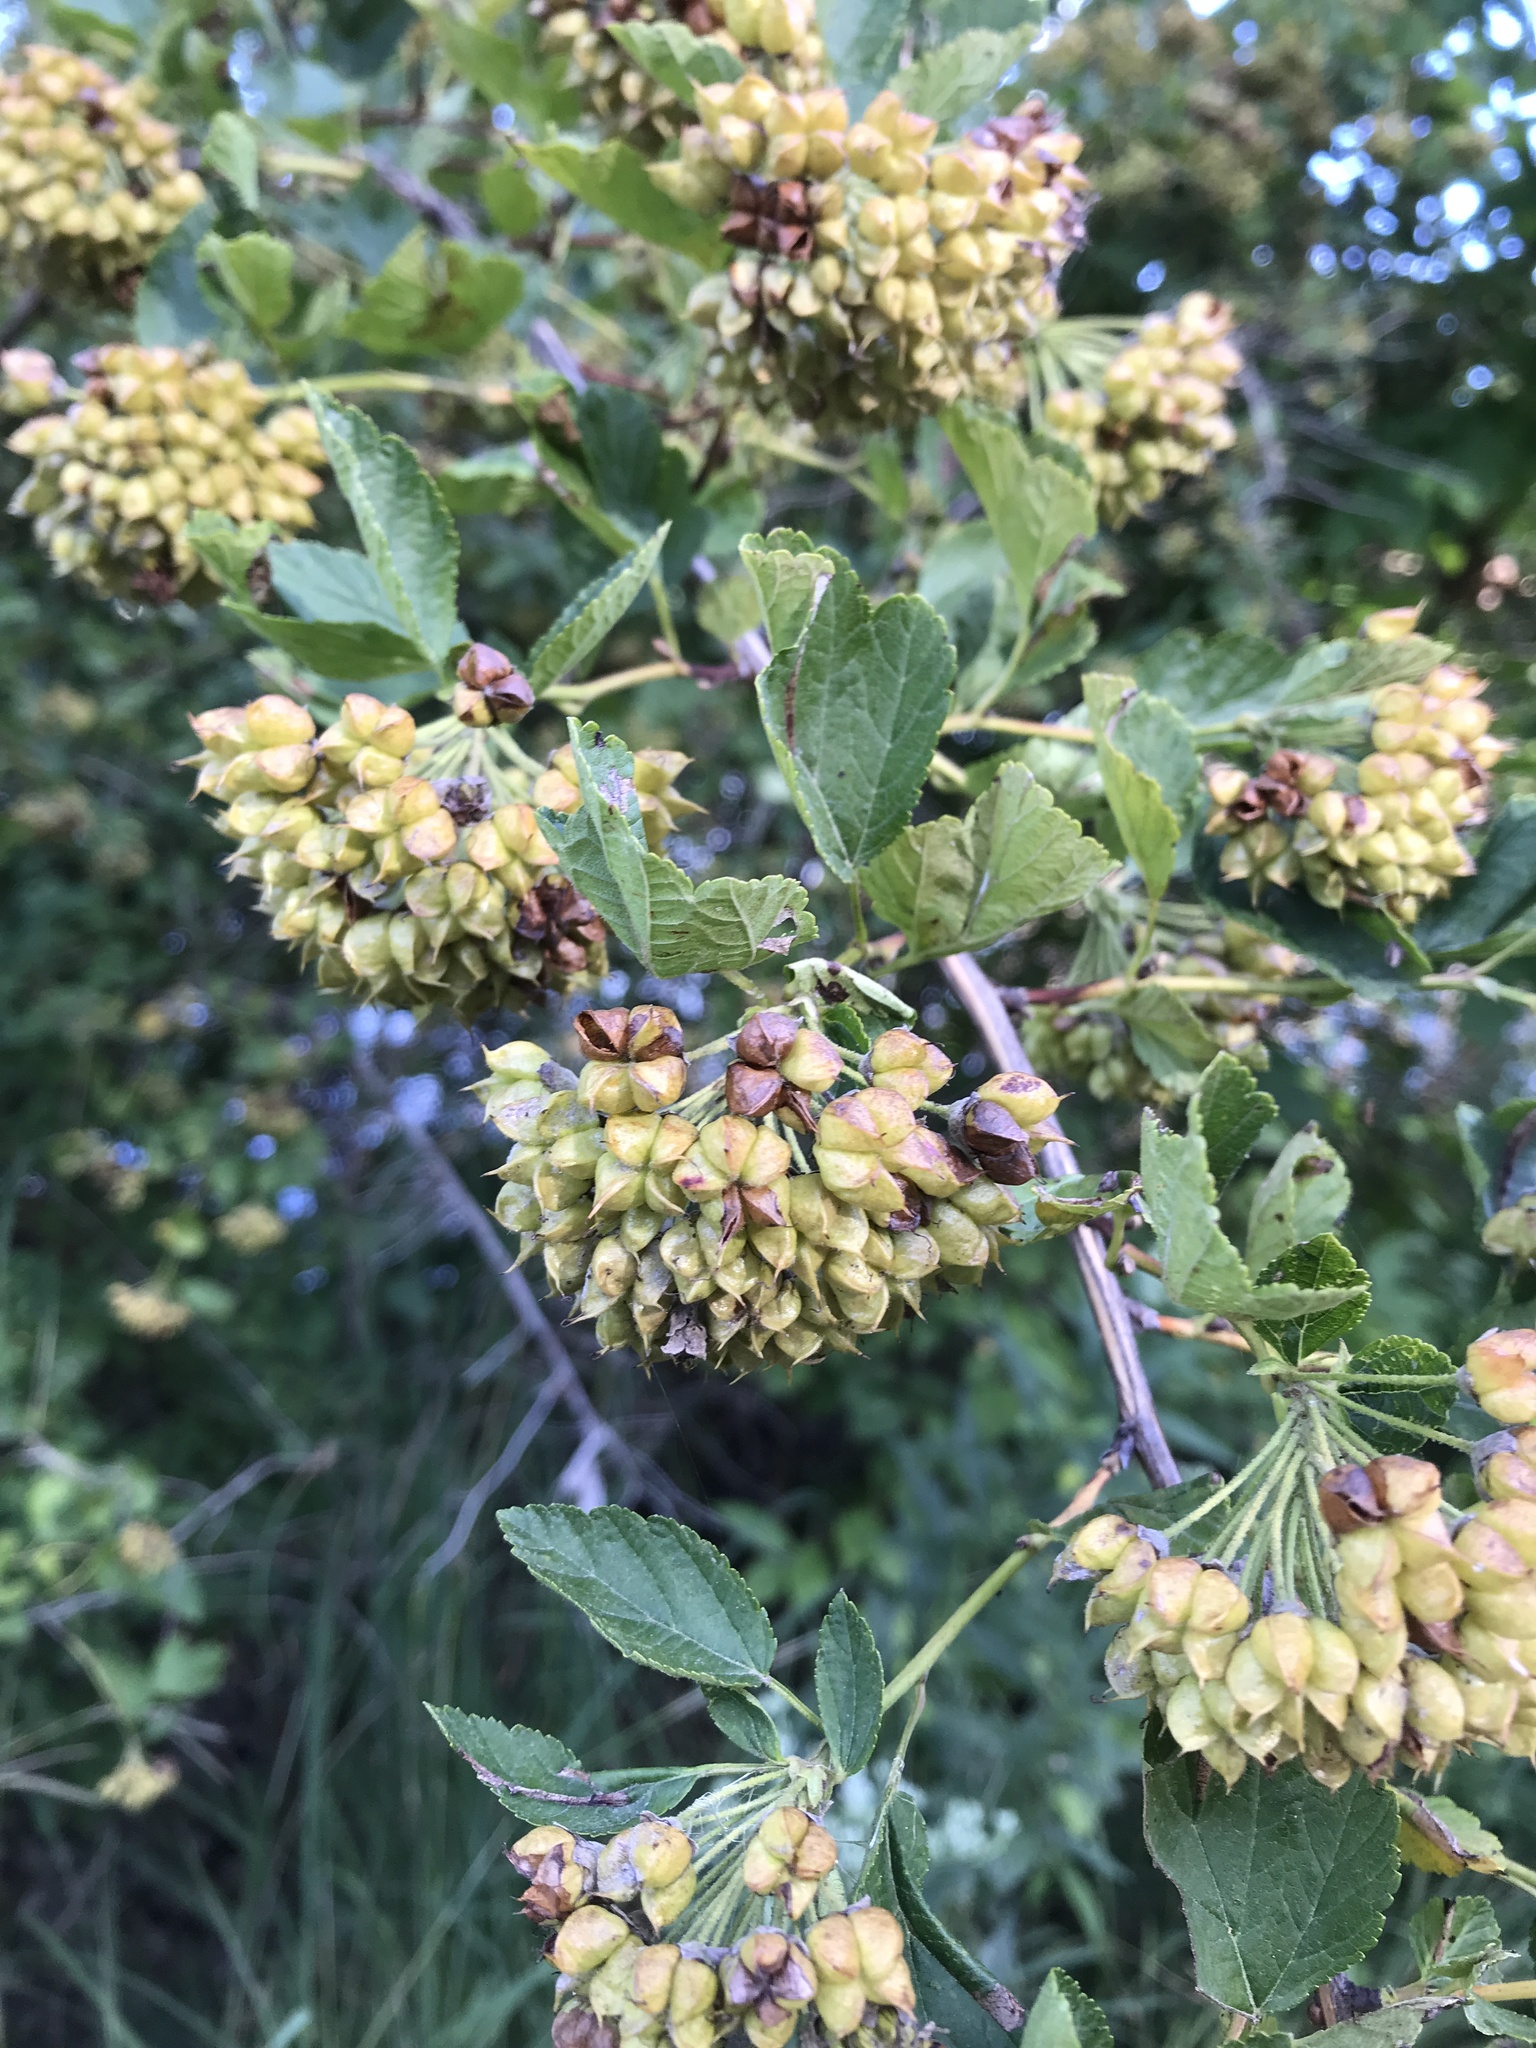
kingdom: Plantae
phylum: Tracheophyta
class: Magnoliopsida
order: Rosales
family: Rosaceae
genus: Physocarpus
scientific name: Physocarpus opulifolius
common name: Ninebark
